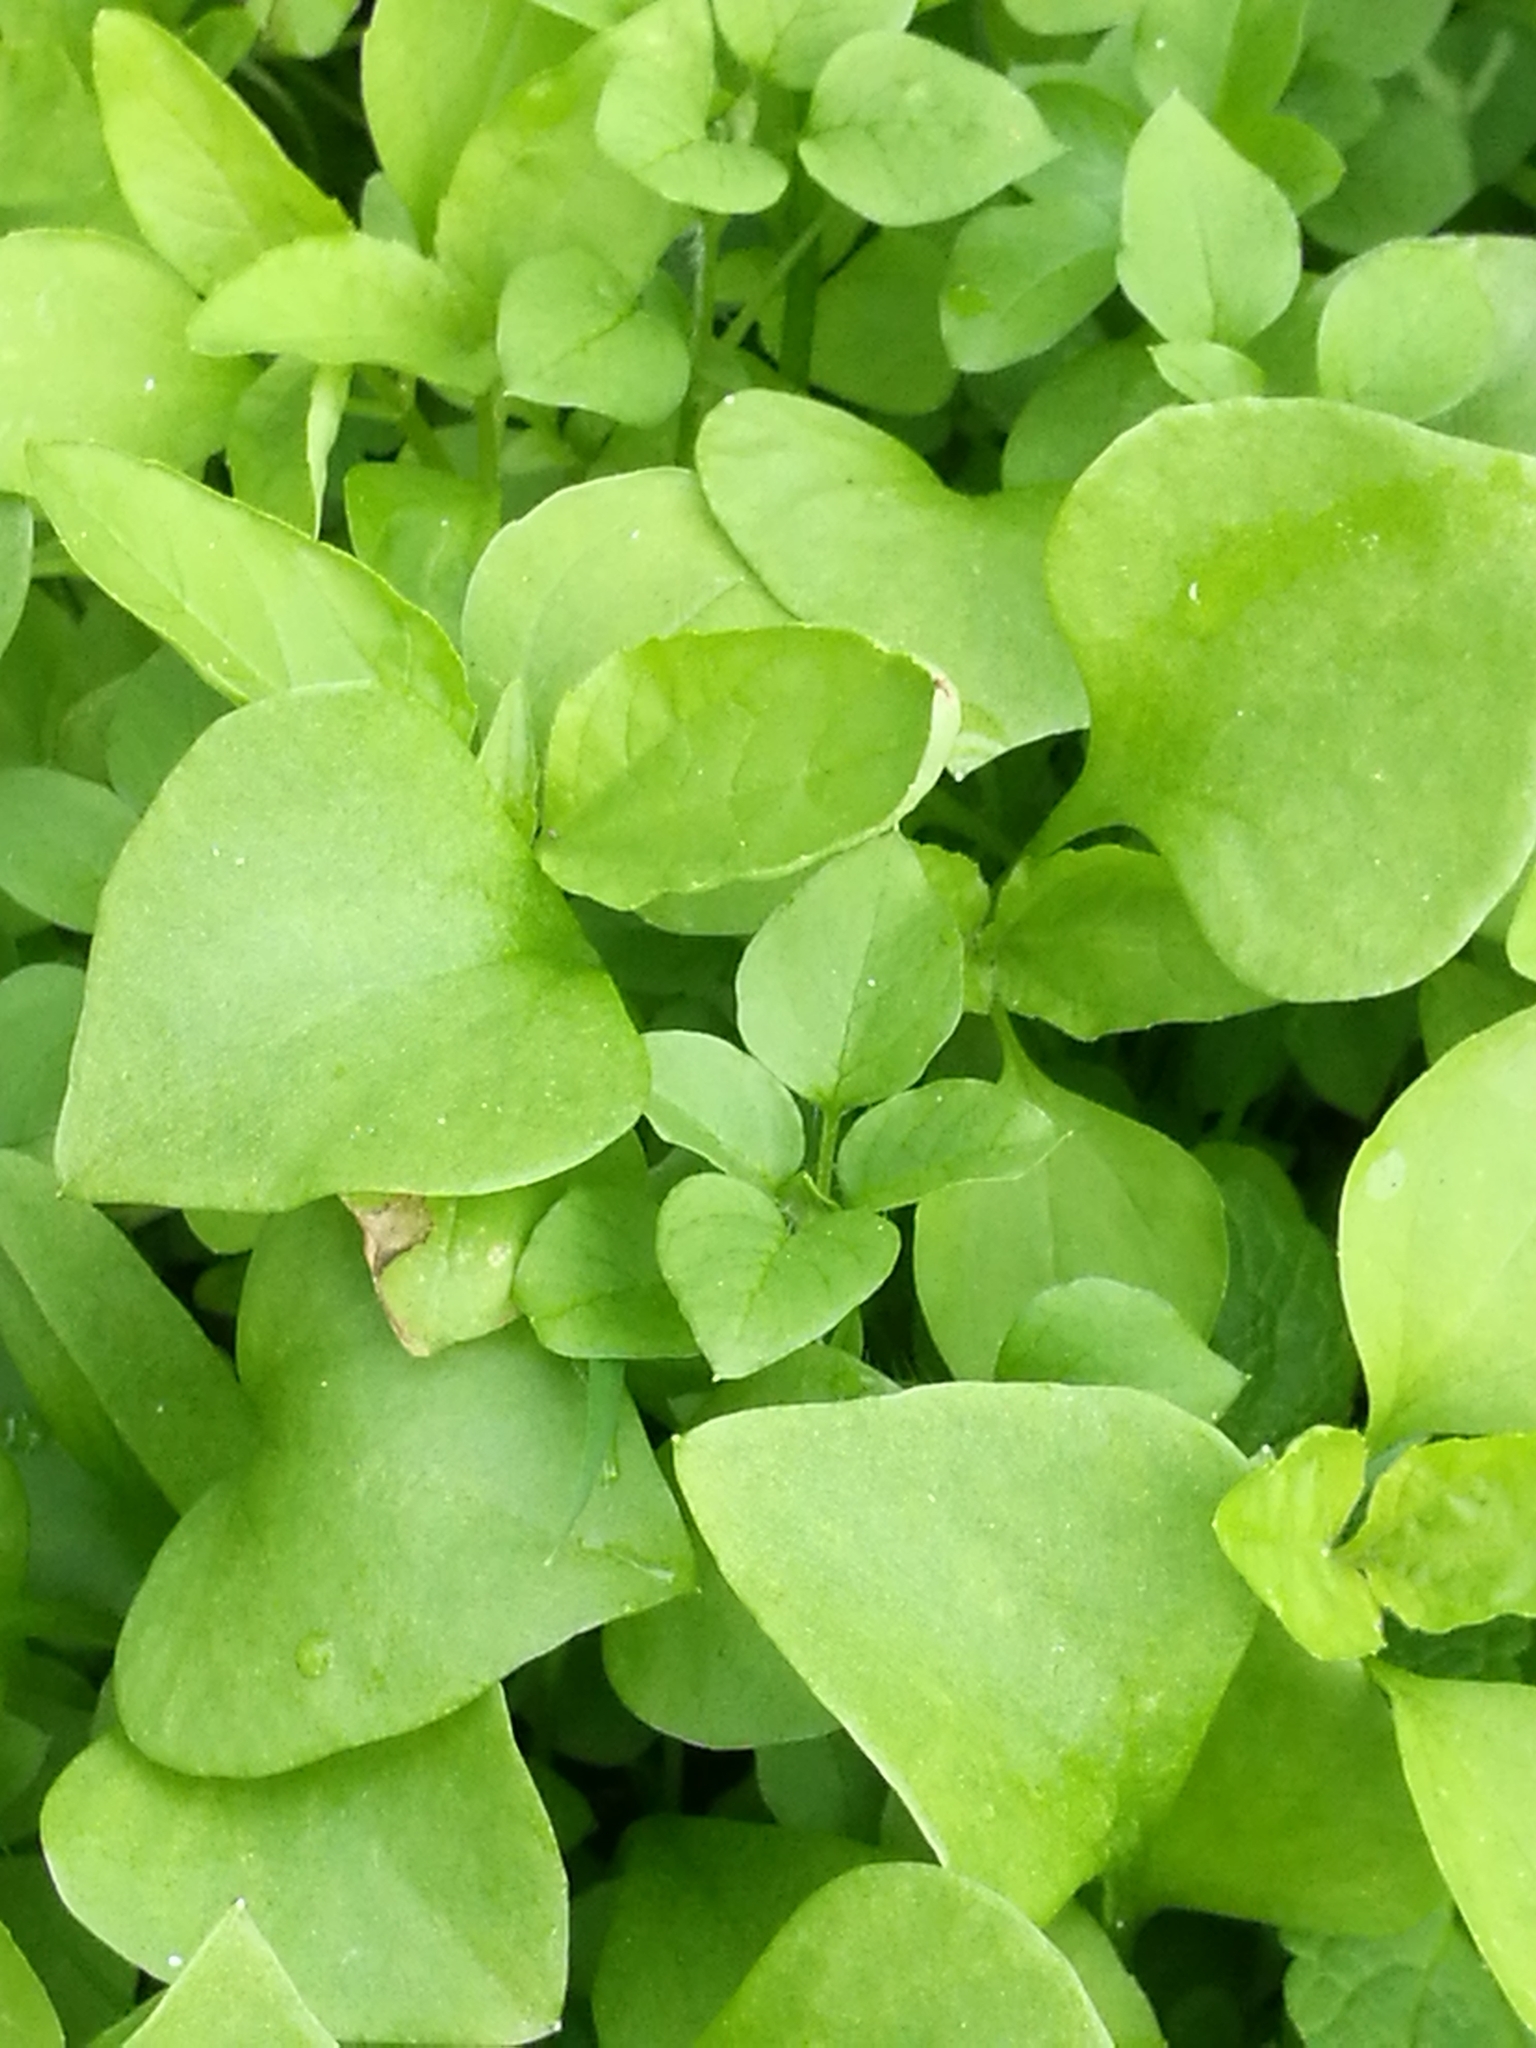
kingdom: Plantae
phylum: Tracheophyta
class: Magnoliopsida
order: Caryophyllales
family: Montiaceae
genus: Claytonia
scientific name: Claytonia perfoliata
